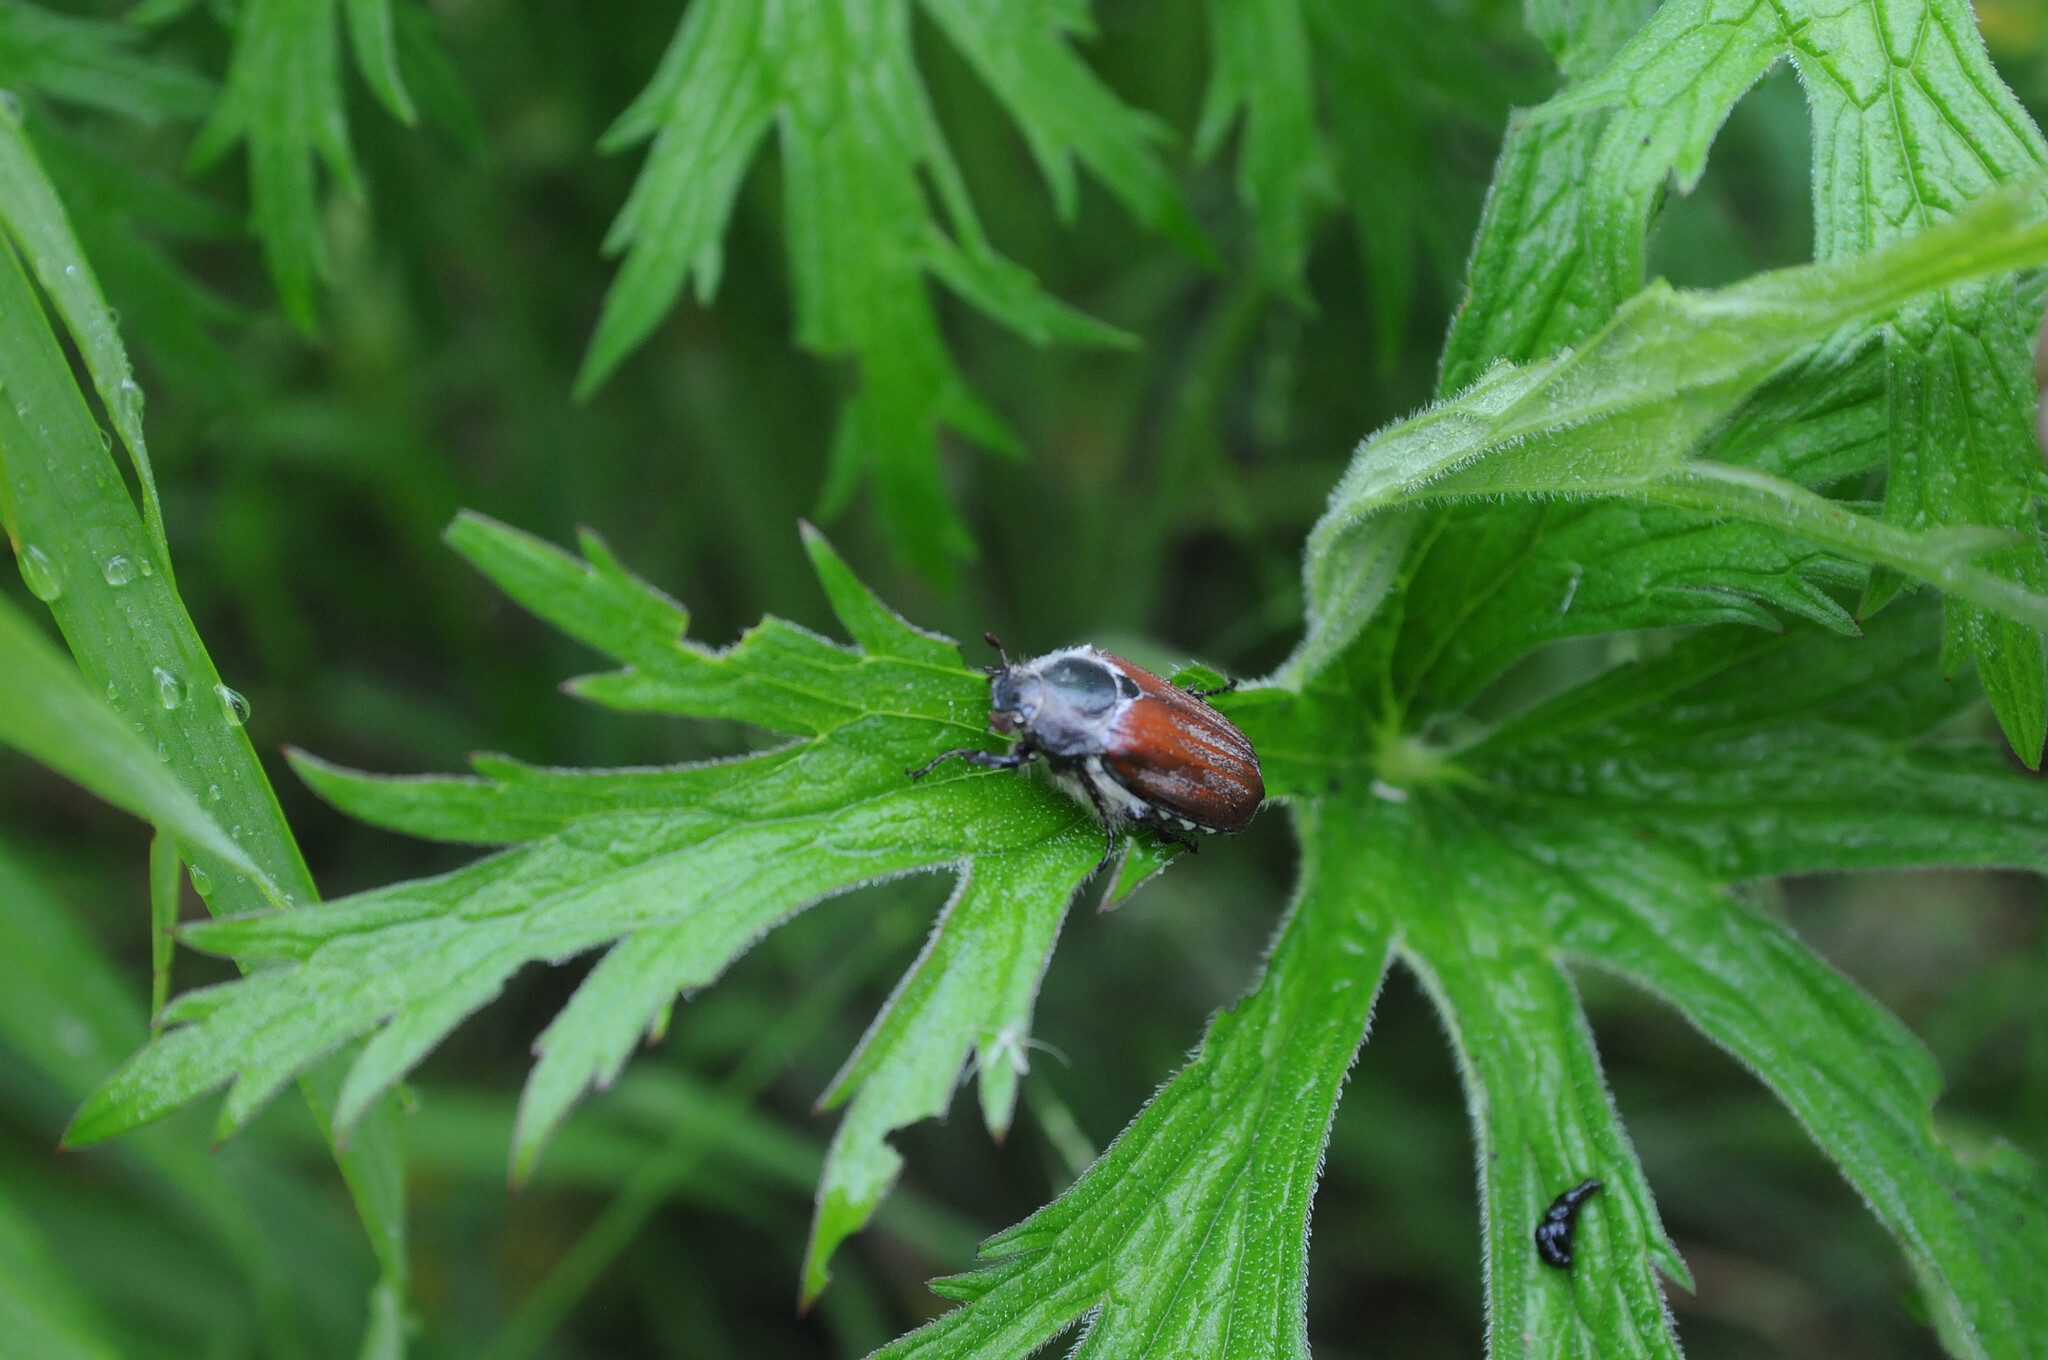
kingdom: Animalia
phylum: Arthropoda
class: Insecta
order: Coleoptera
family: Scarabaeidae
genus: Melolontha
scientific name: Melolontha hippocastani
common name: Chestnut cockchafer
